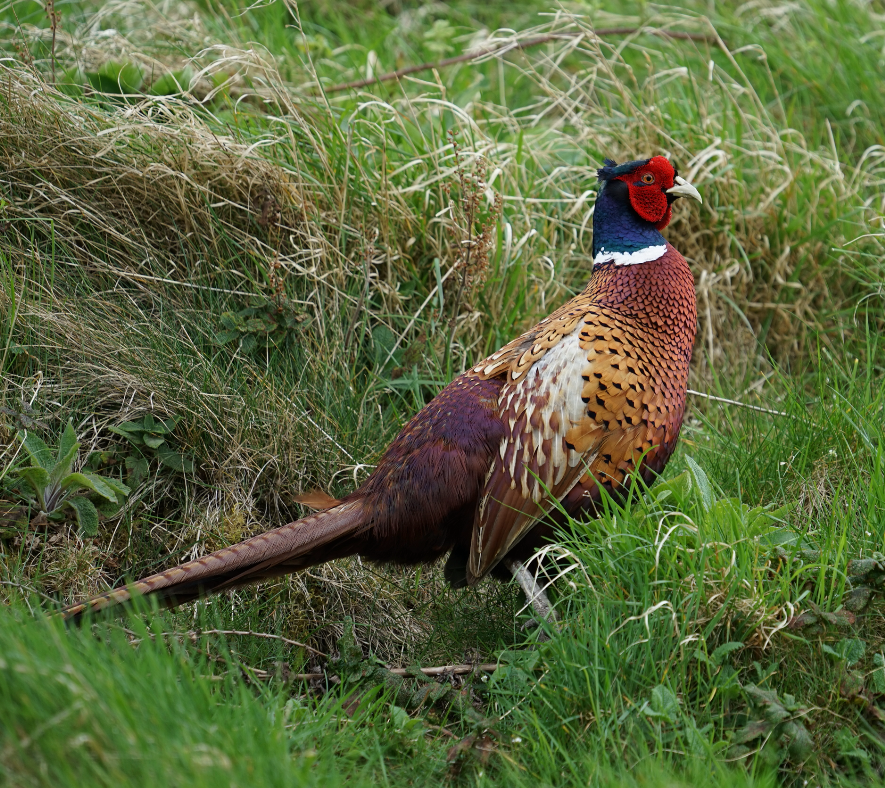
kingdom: Animalia
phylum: Chordata
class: Aves
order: Galliformes
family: Phasianidae
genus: Phasianus
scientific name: Phasianus colchicus
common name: Common pheasant
